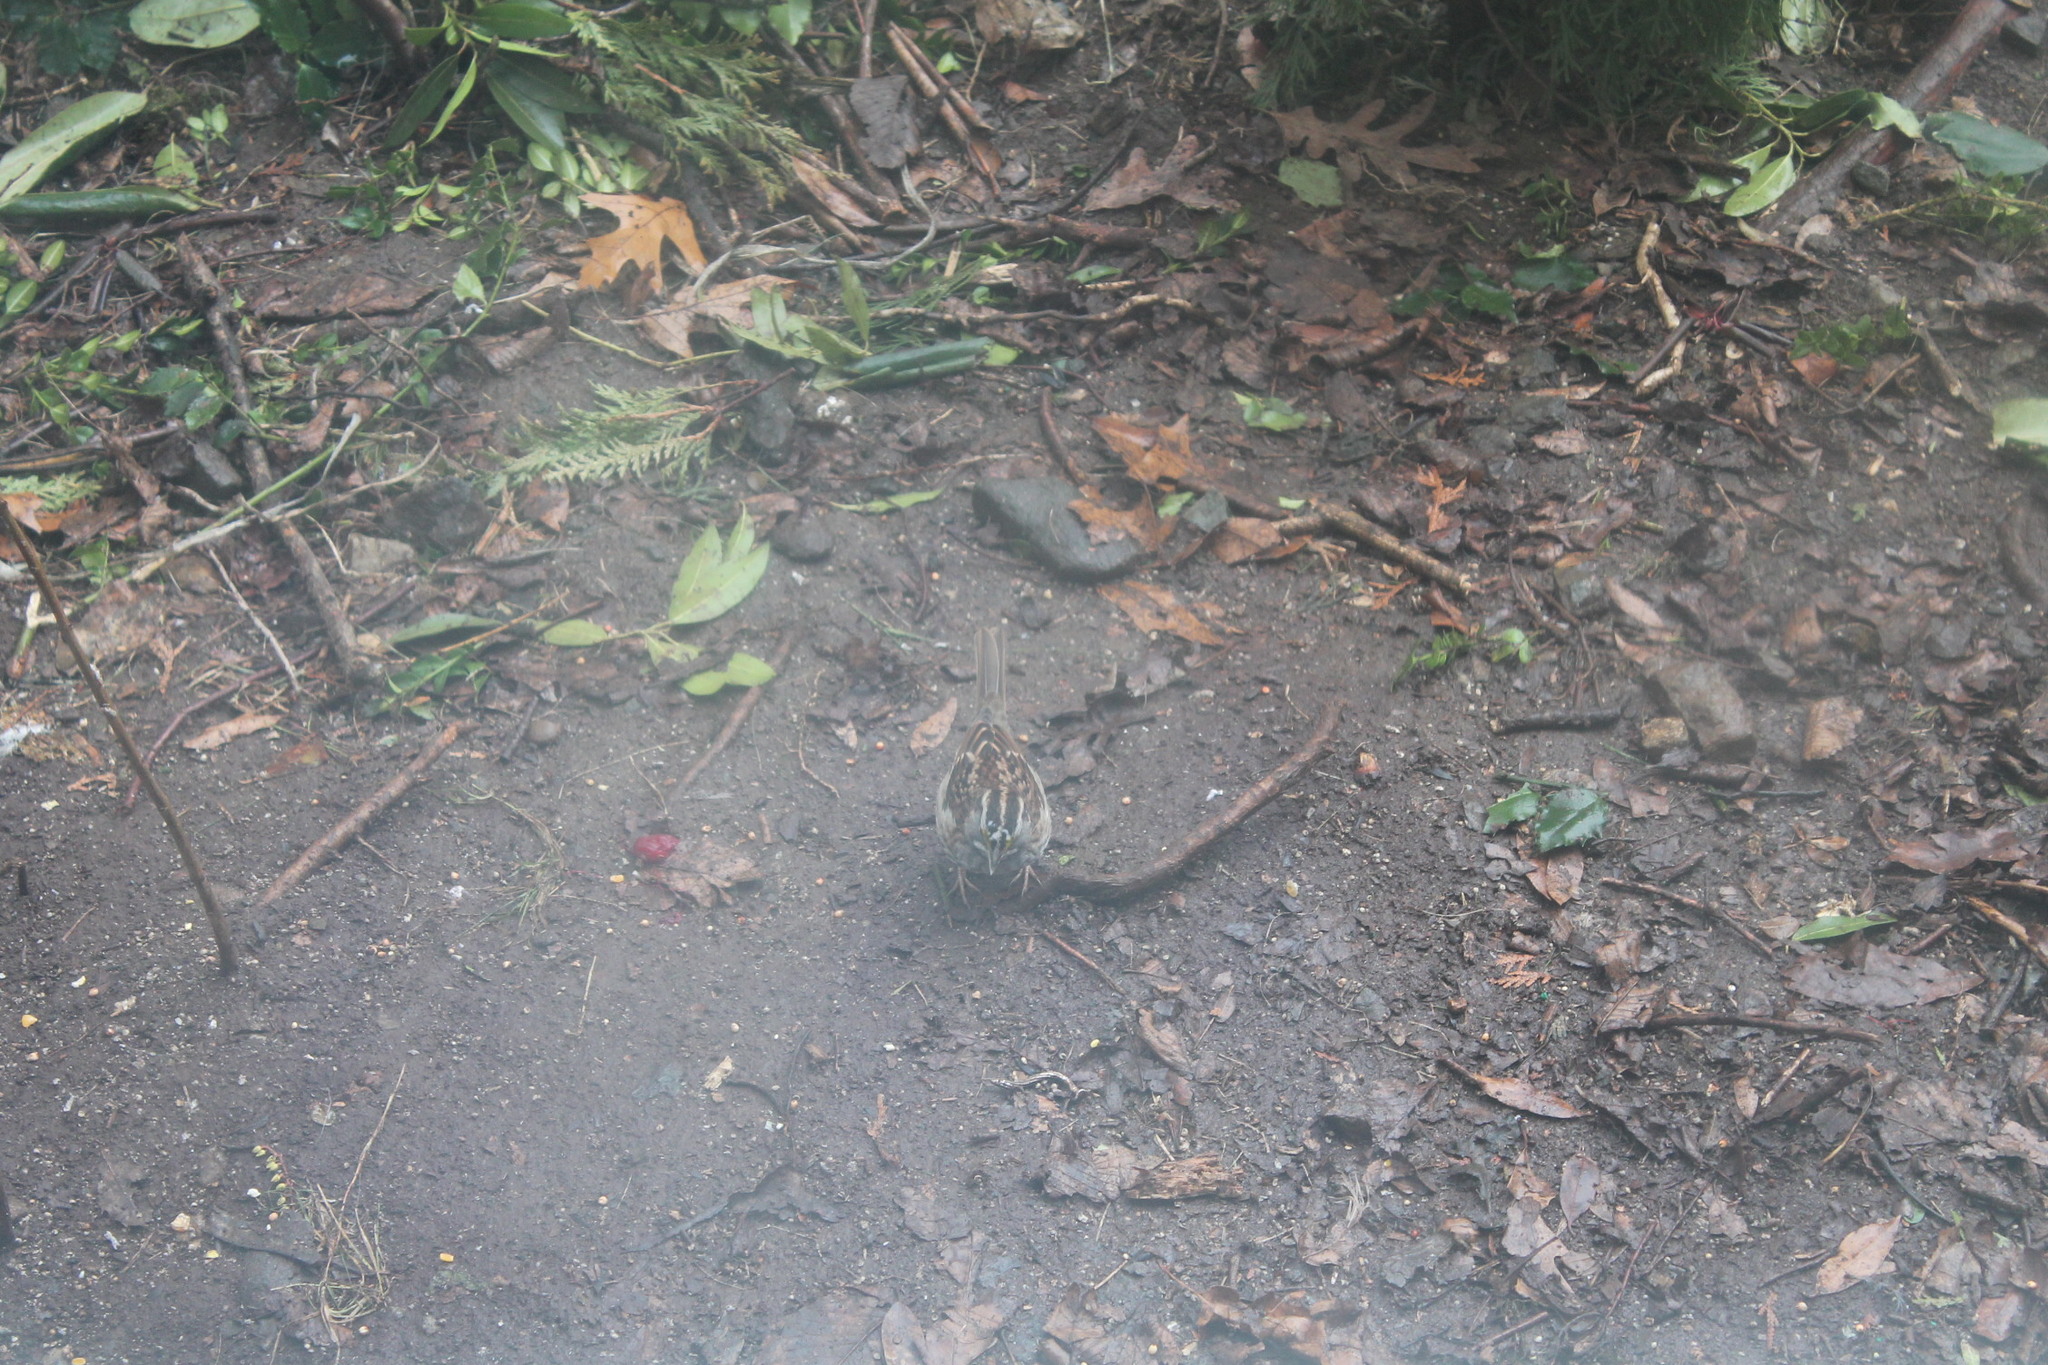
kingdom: Animalia
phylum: Chordata
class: Aves
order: Passeriformes
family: Passerellidae
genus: Zonotrichia
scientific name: Zonotrichia albicollis
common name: White-throated sparrow
